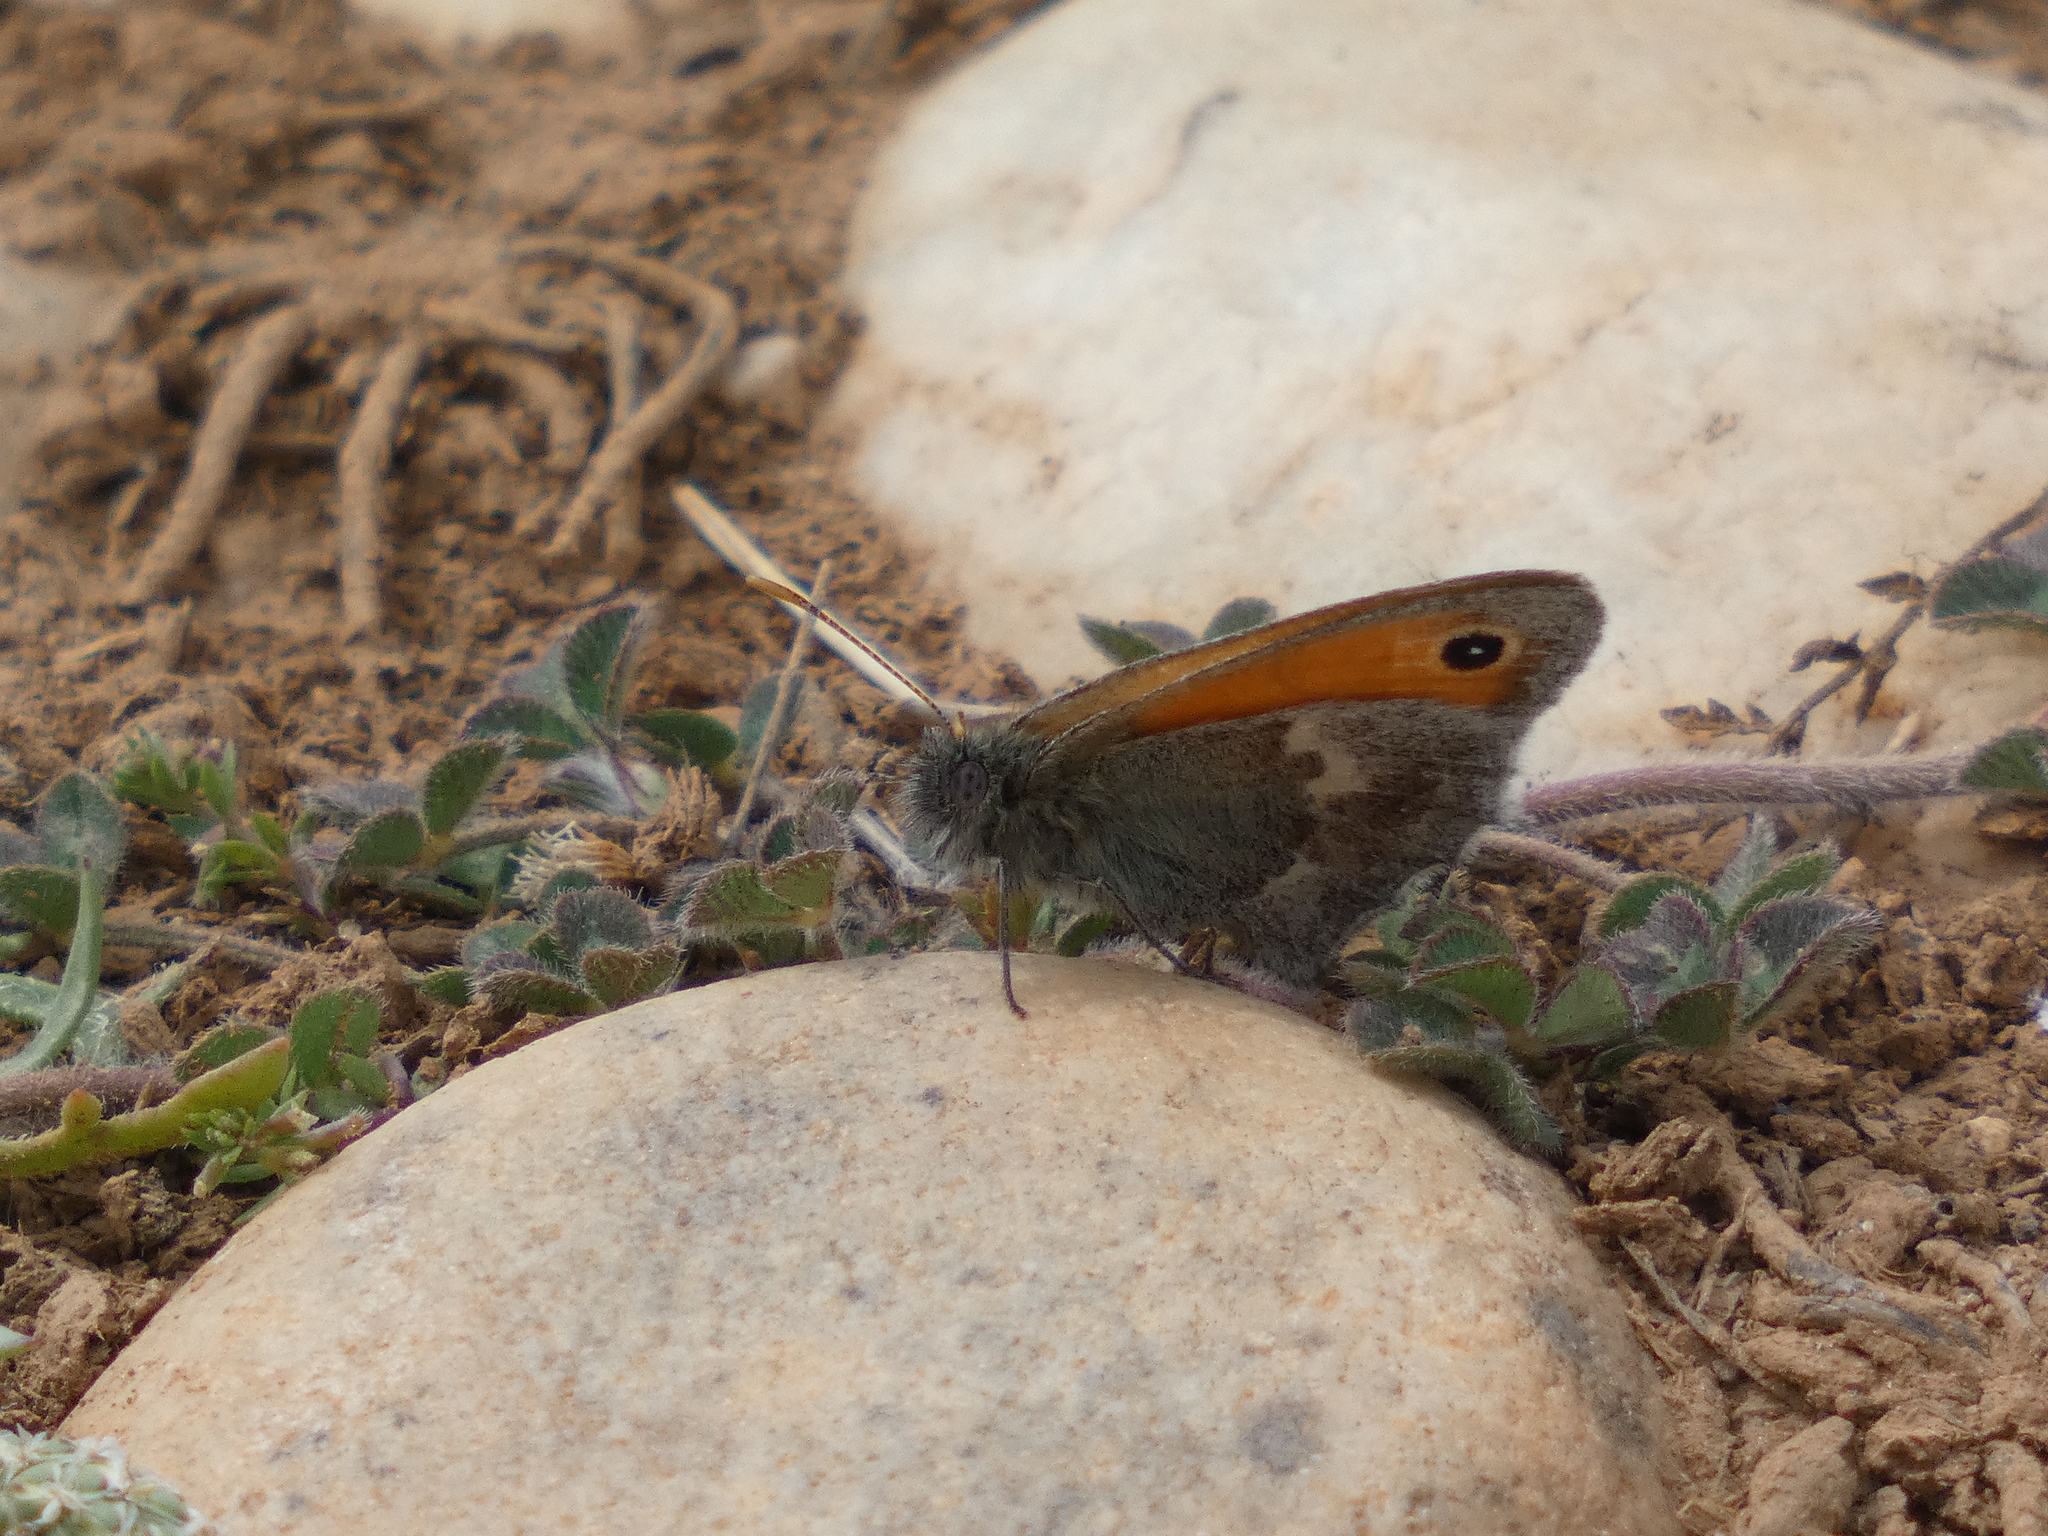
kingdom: Animalia
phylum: Arthropoda
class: Insecta
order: Lepidoptera
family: Nymphalidae
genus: Coenonympha
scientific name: Coenonympha pamphilus
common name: Small heath
